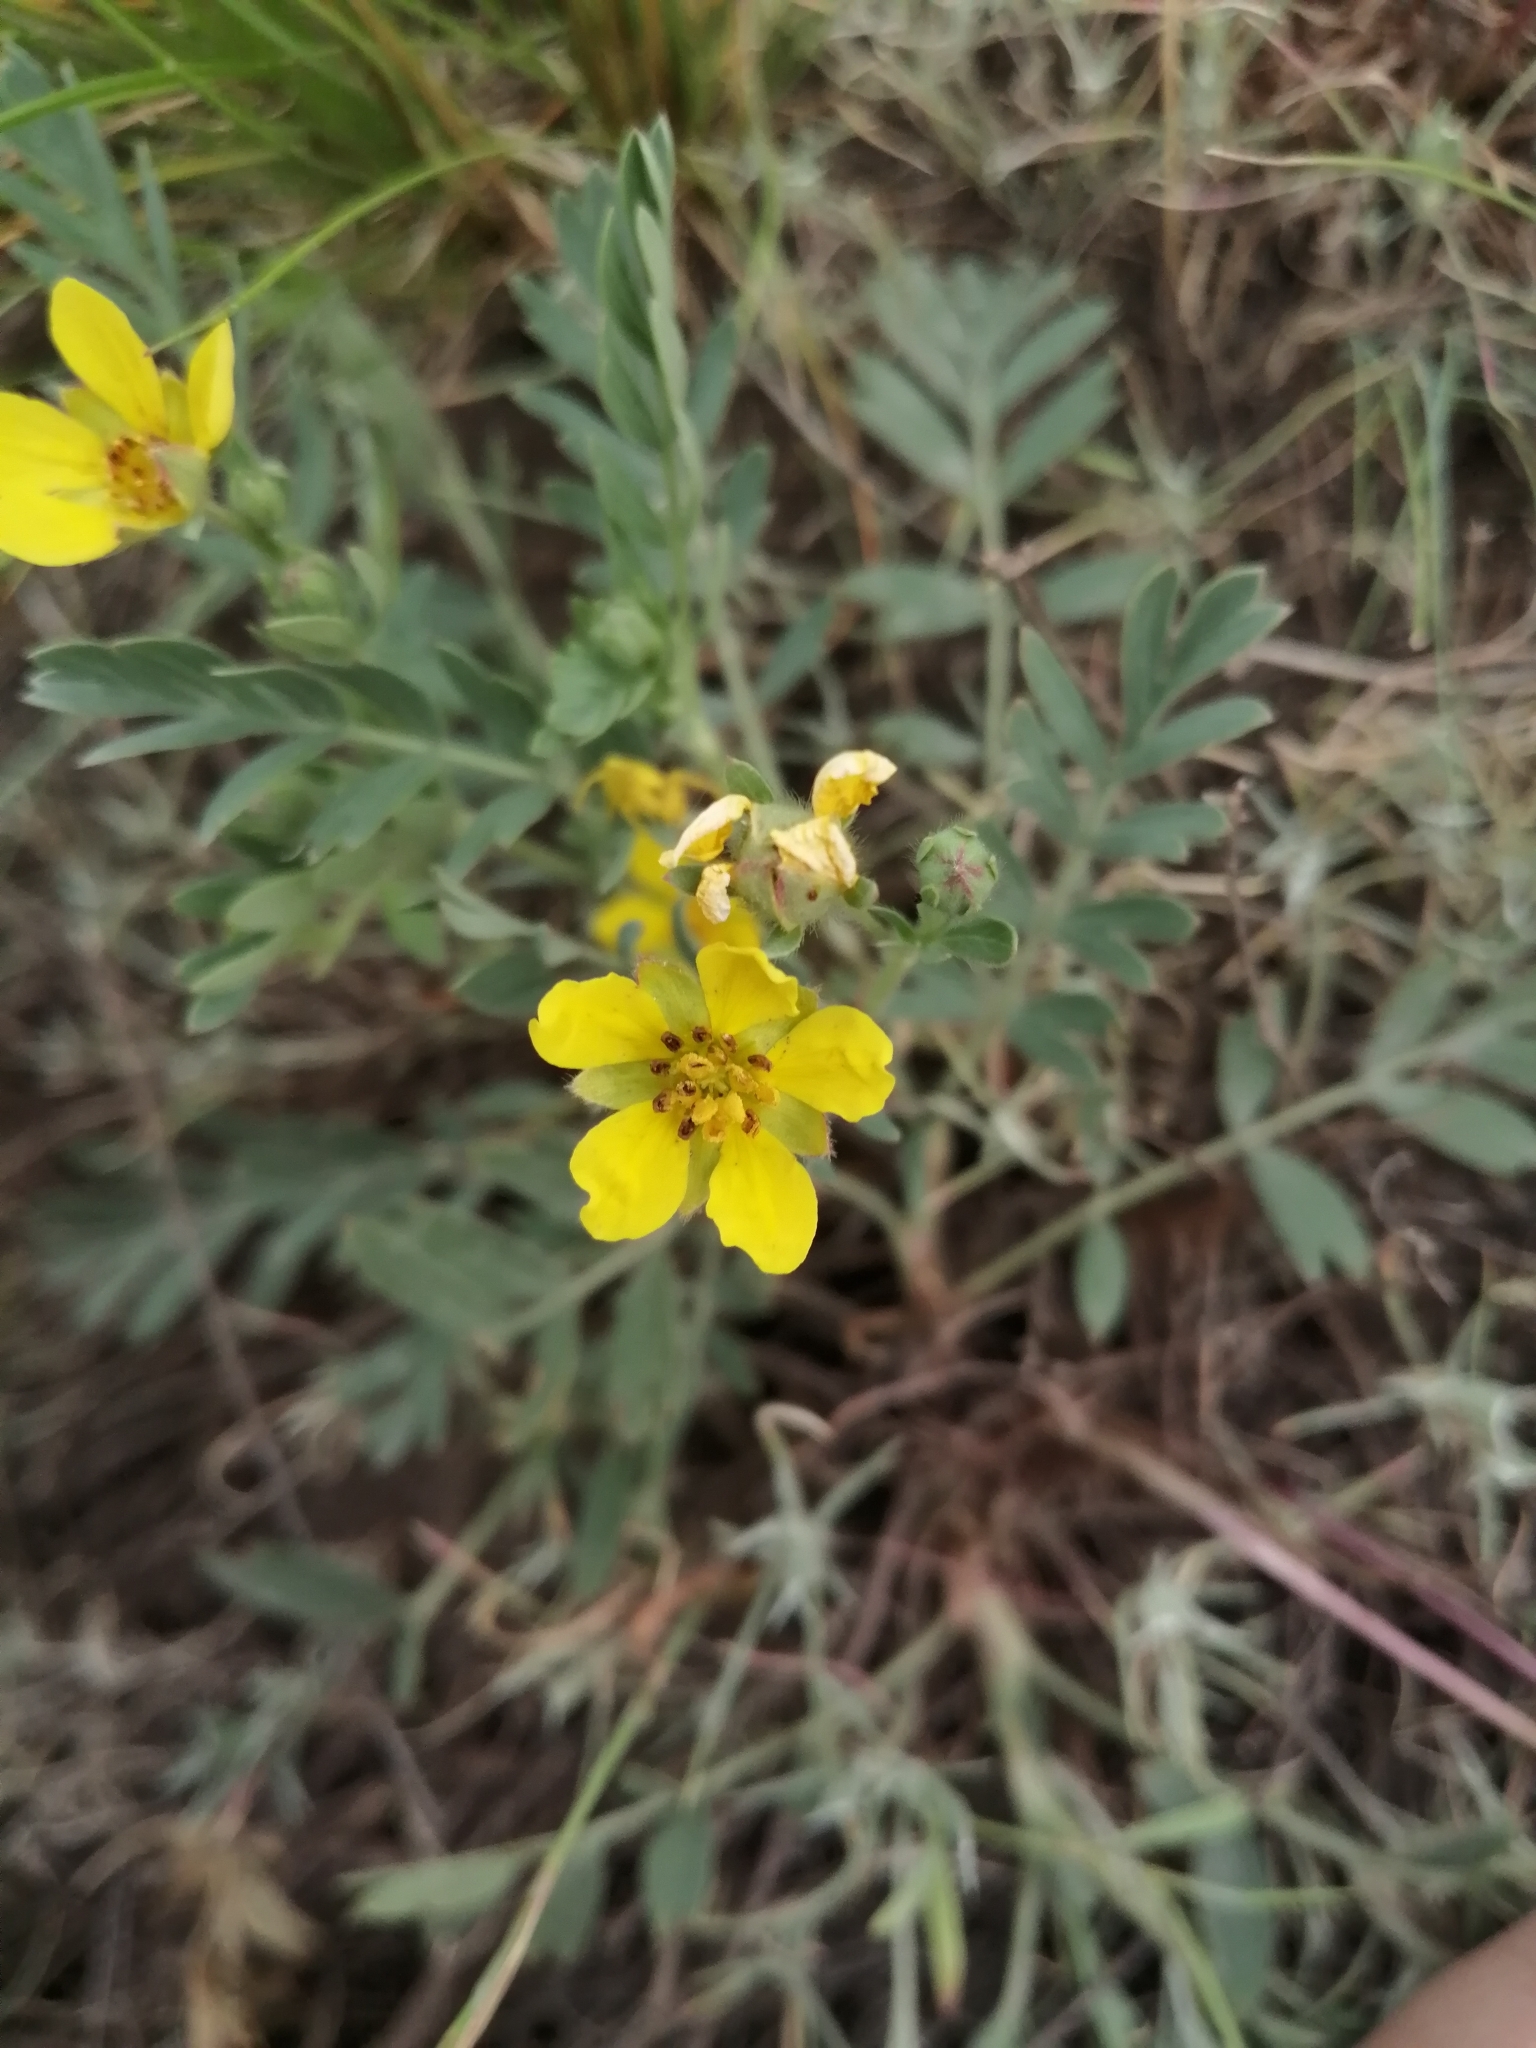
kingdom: Plantae
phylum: Tracheophyta
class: Magnoliopsida
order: Rosales
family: Rosaceae
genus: Sibbaldianthe
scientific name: Sibbaldianthe orientalis
